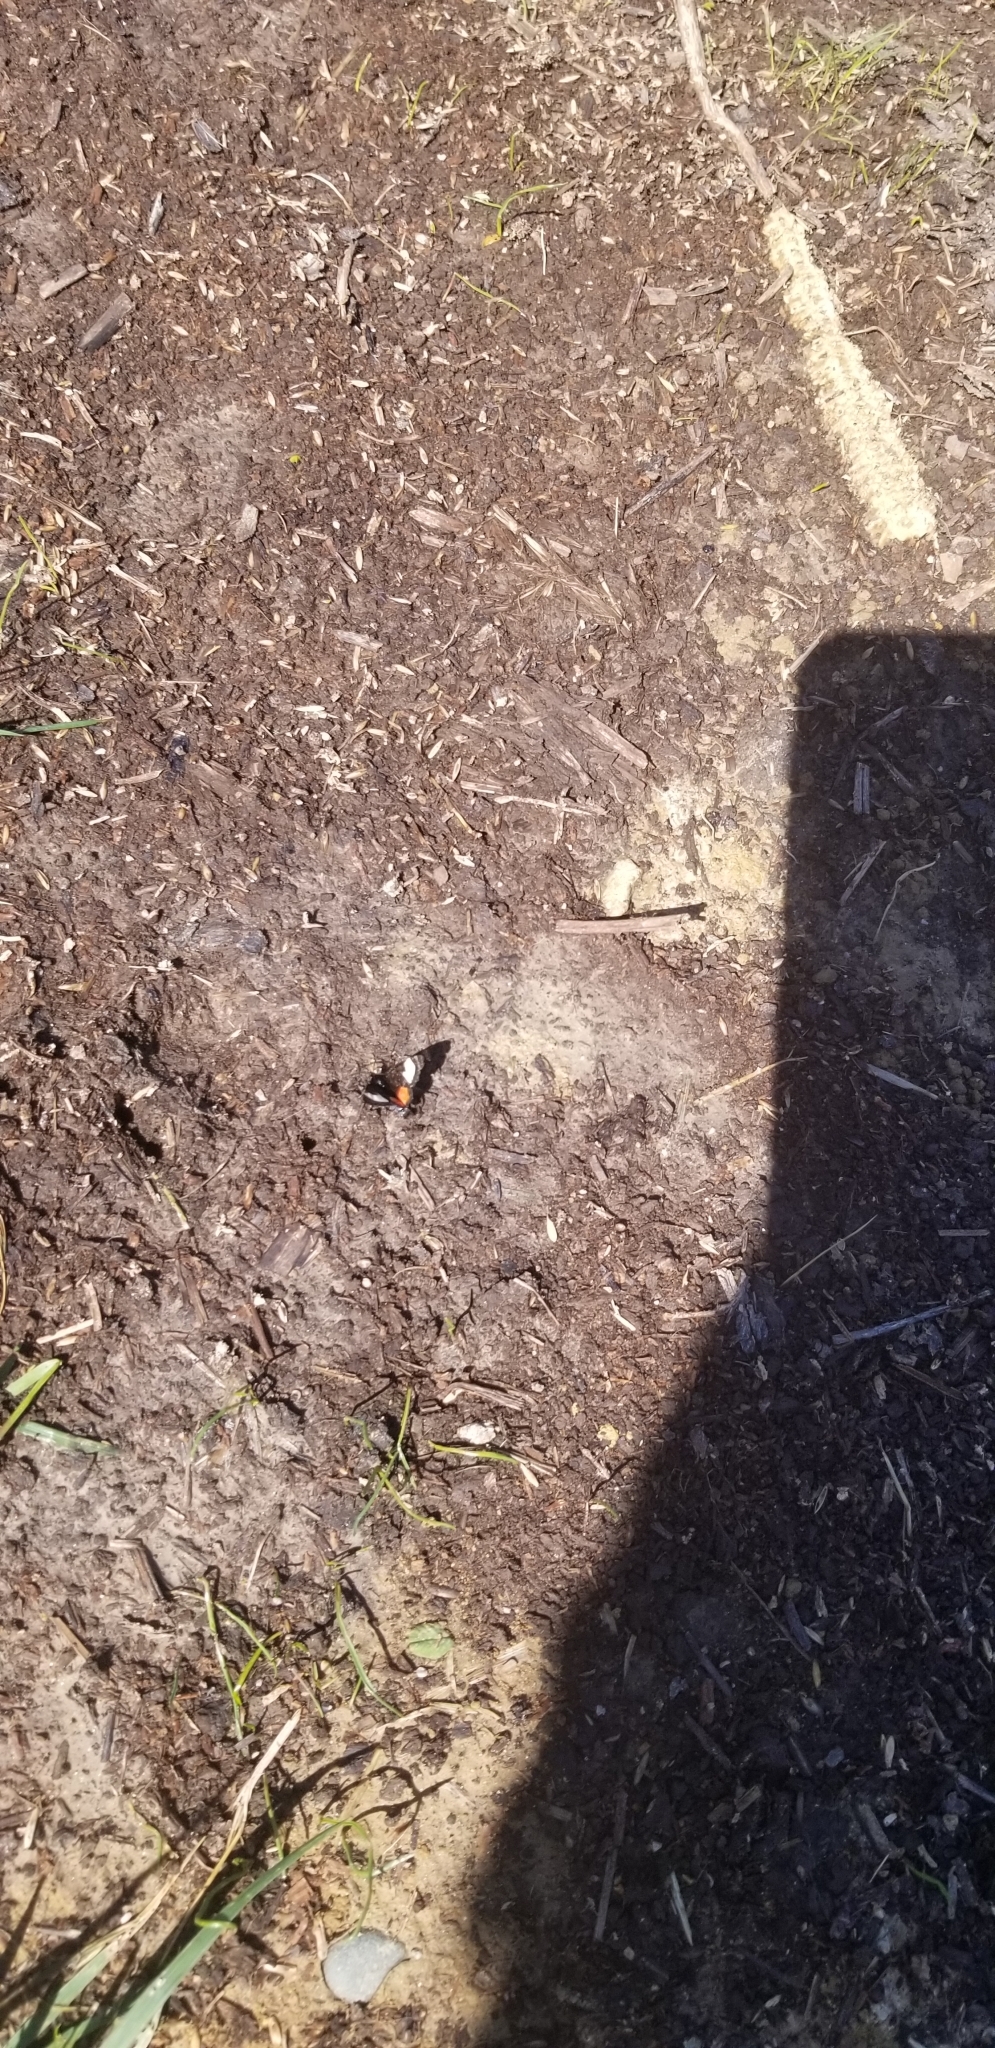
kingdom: Animalia
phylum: Arthropoda
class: Insecta
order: Lepidoptera
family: Noctuidae
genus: Psychomorpha
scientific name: Psychomorpha epimenis
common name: Grapevine epimenis moth
